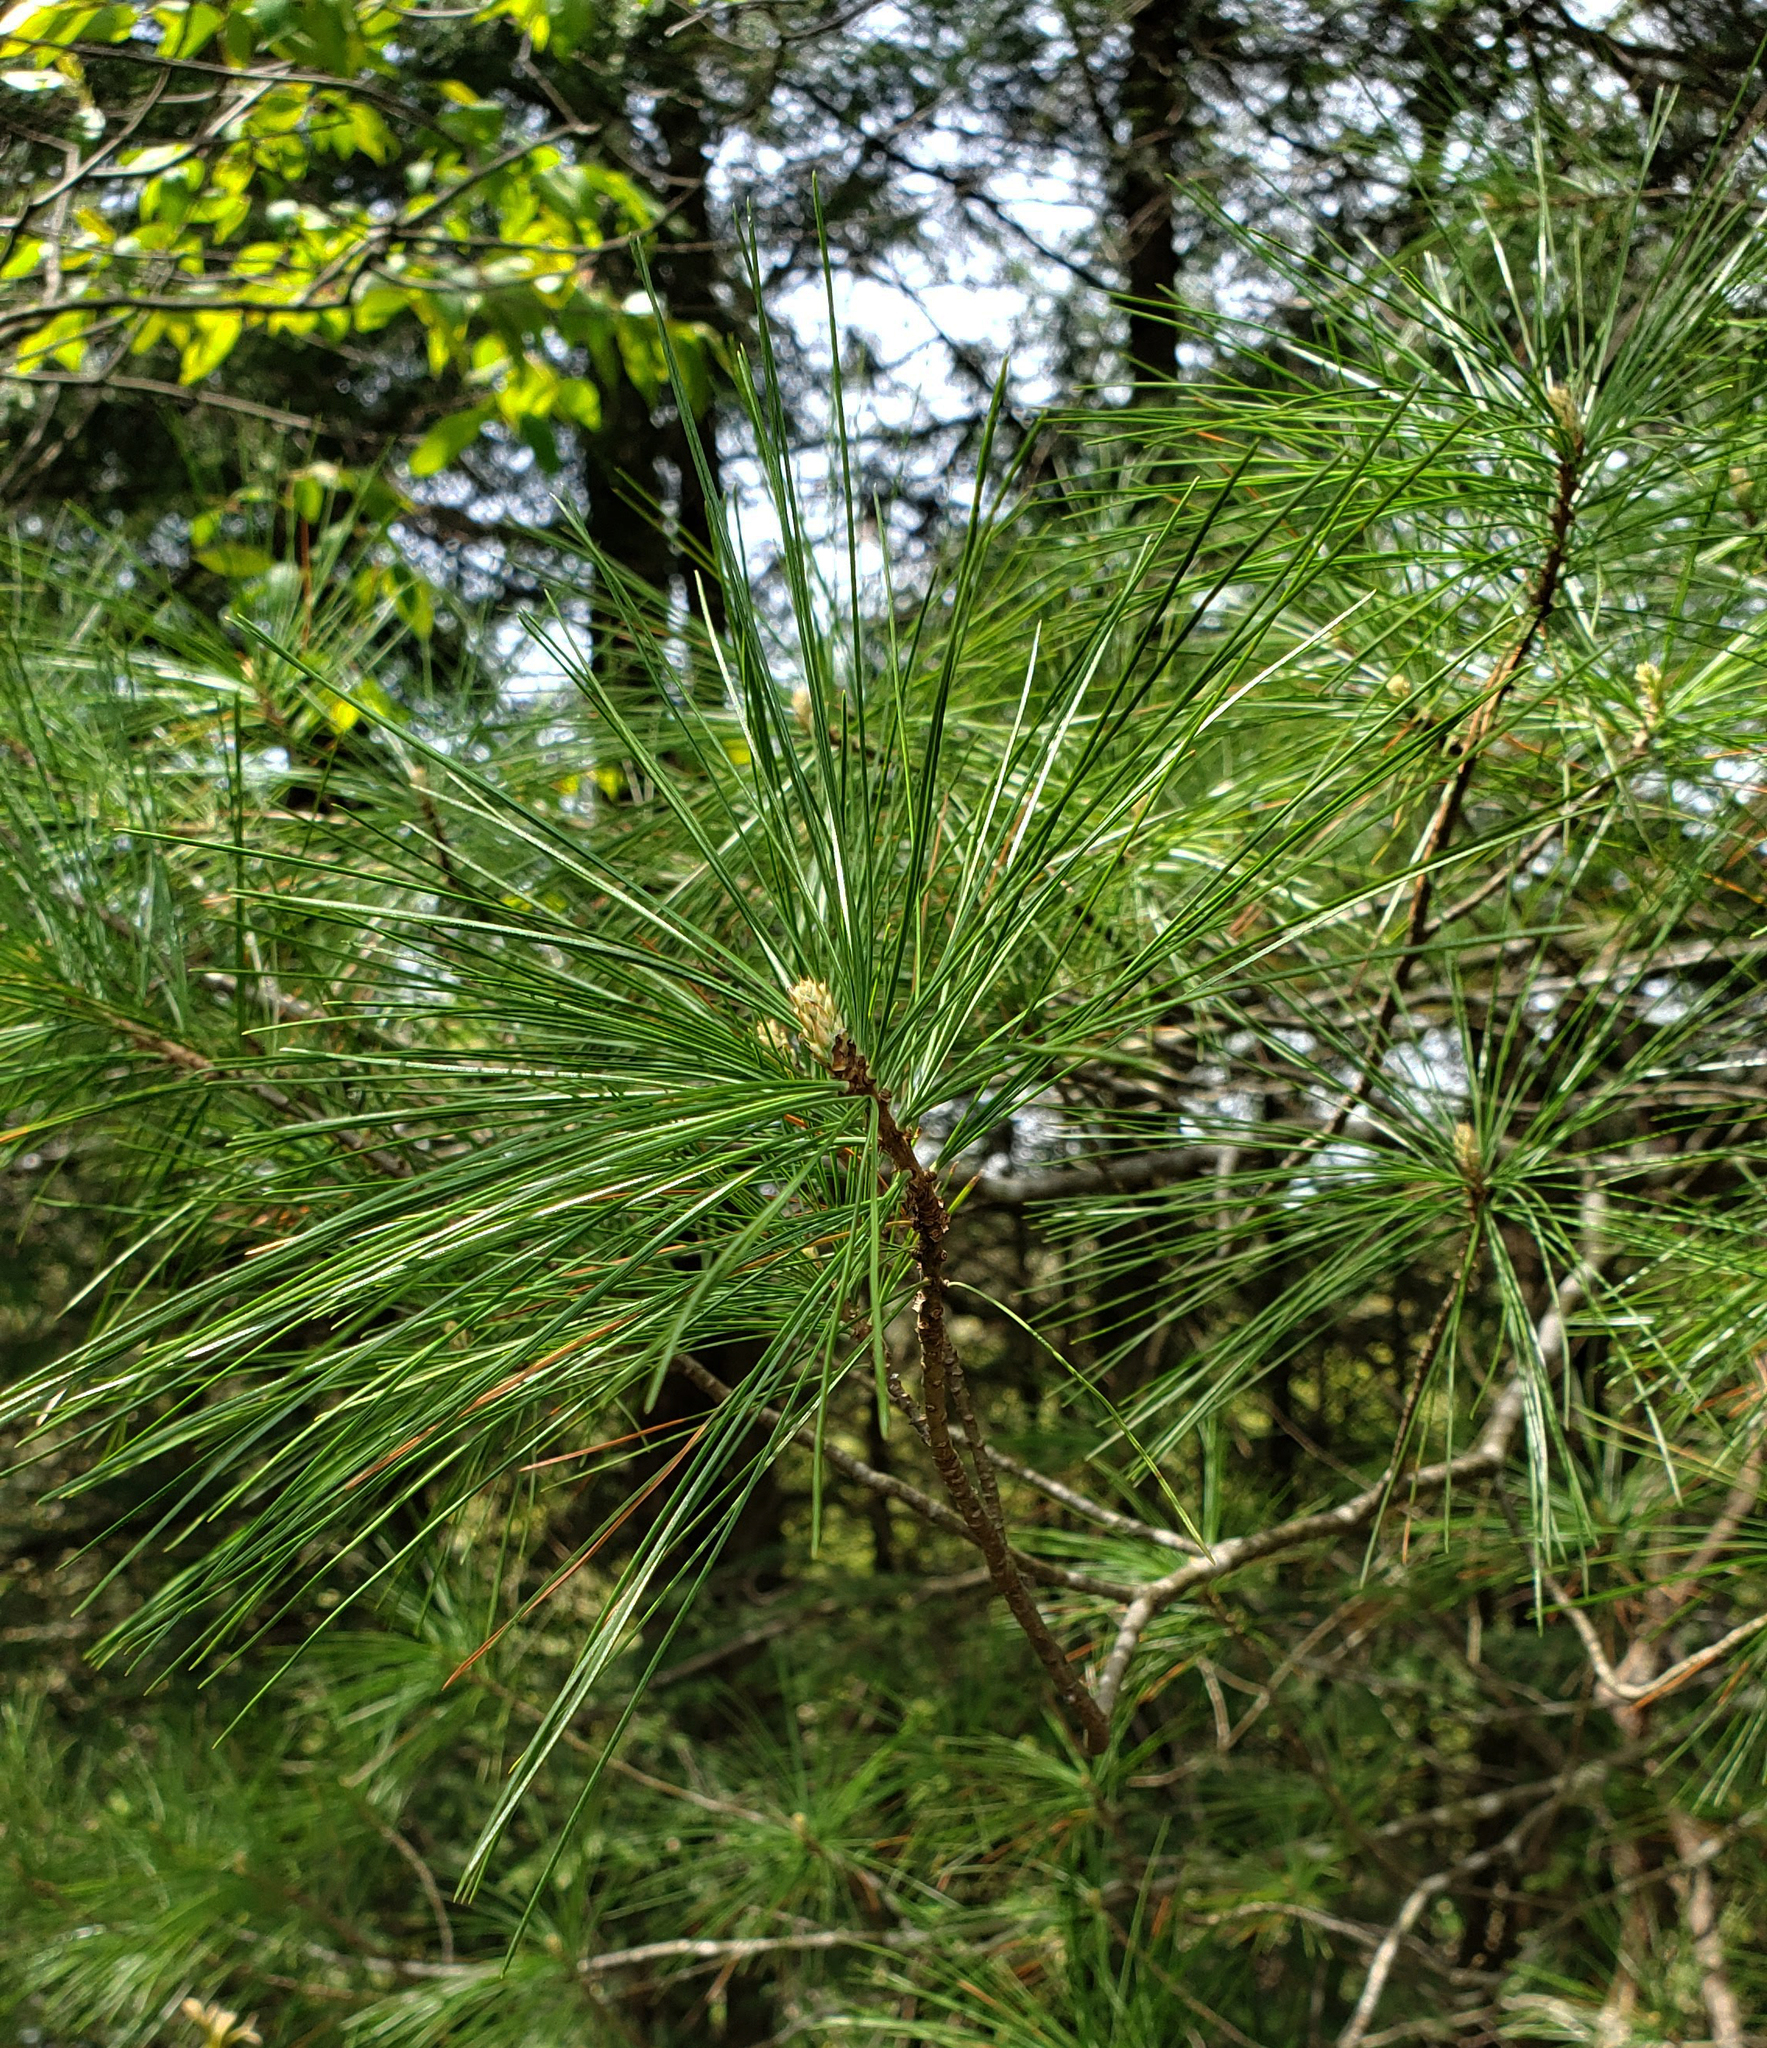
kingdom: Plantae
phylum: Tracheophyta
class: Pinopsida
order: Pinales
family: Pinaceae
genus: Pinus
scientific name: Pinus strobus
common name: Weymouth pine
